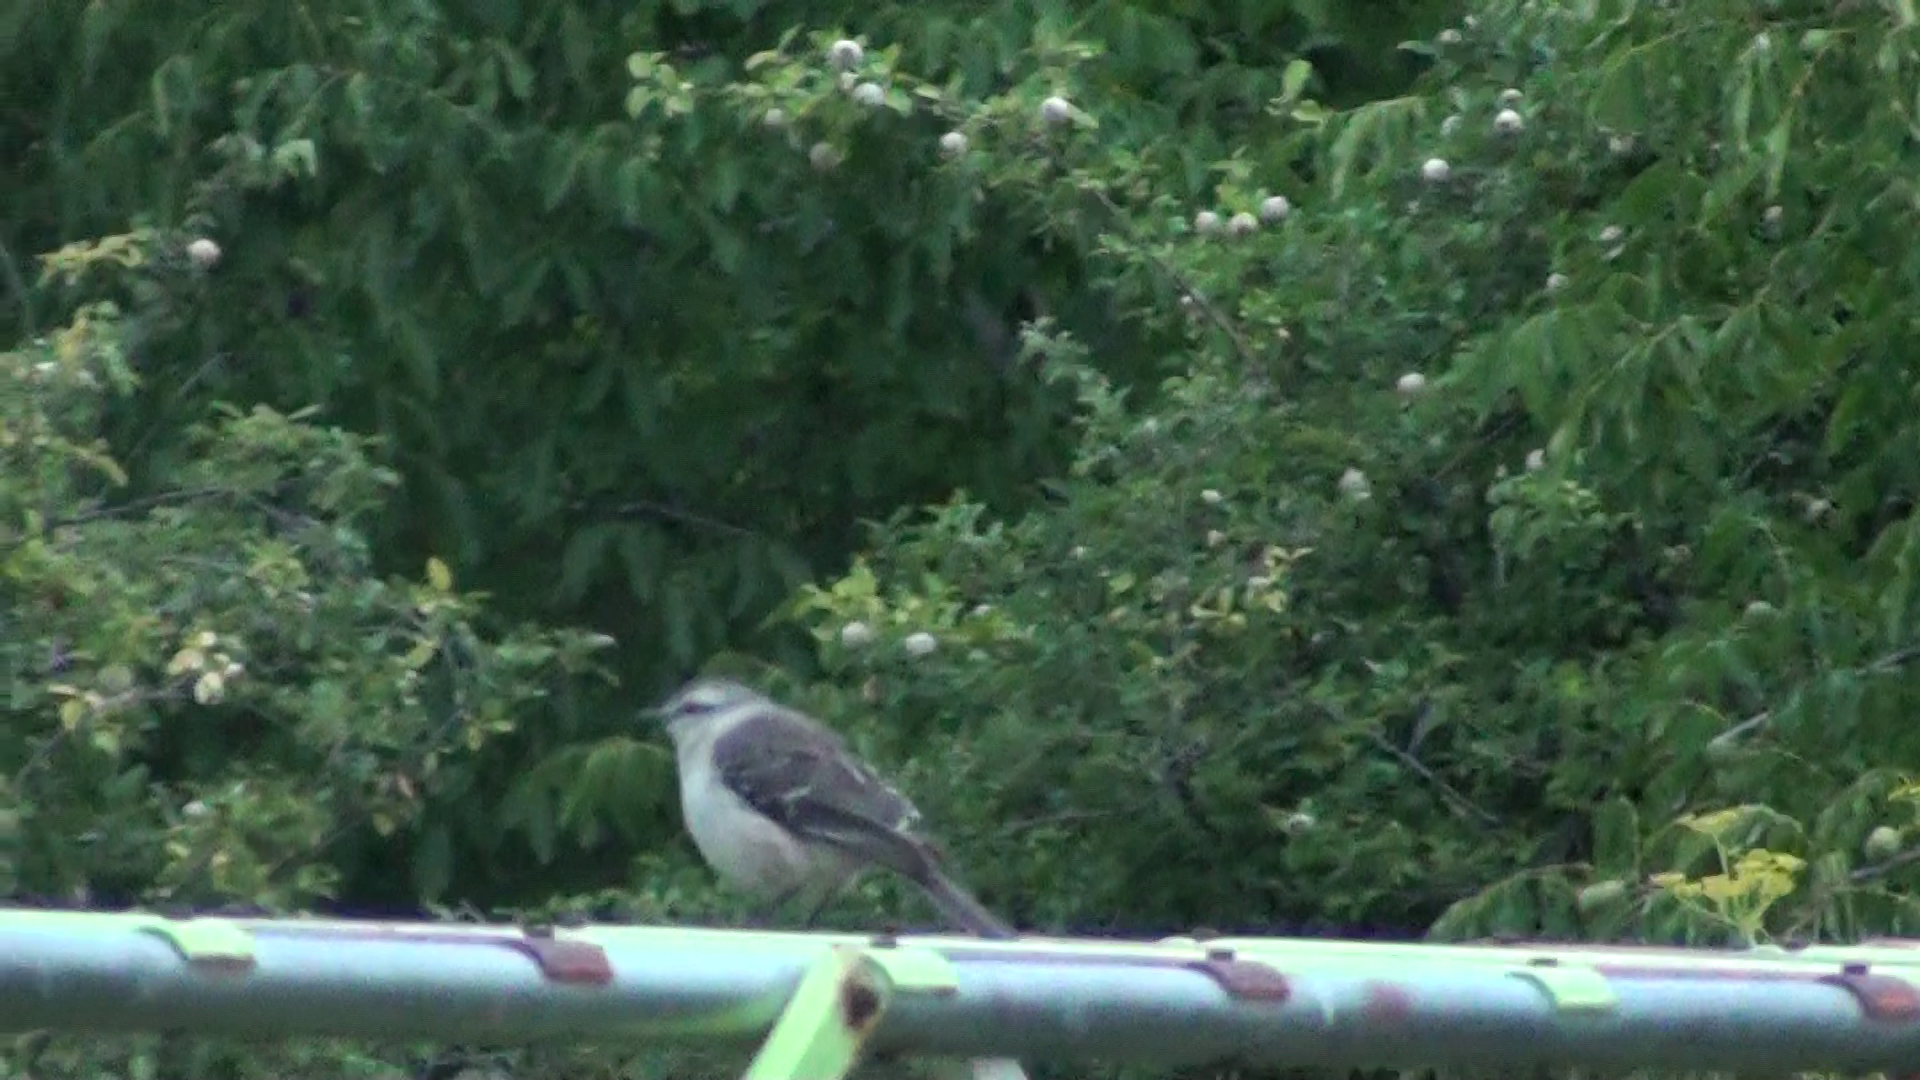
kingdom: Animalia
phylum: Chordata
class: Aves
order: Passeriformes
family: Mimidae
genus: Mimus
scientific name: Mimus saturninus
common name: Chalk-browed mockingbird
